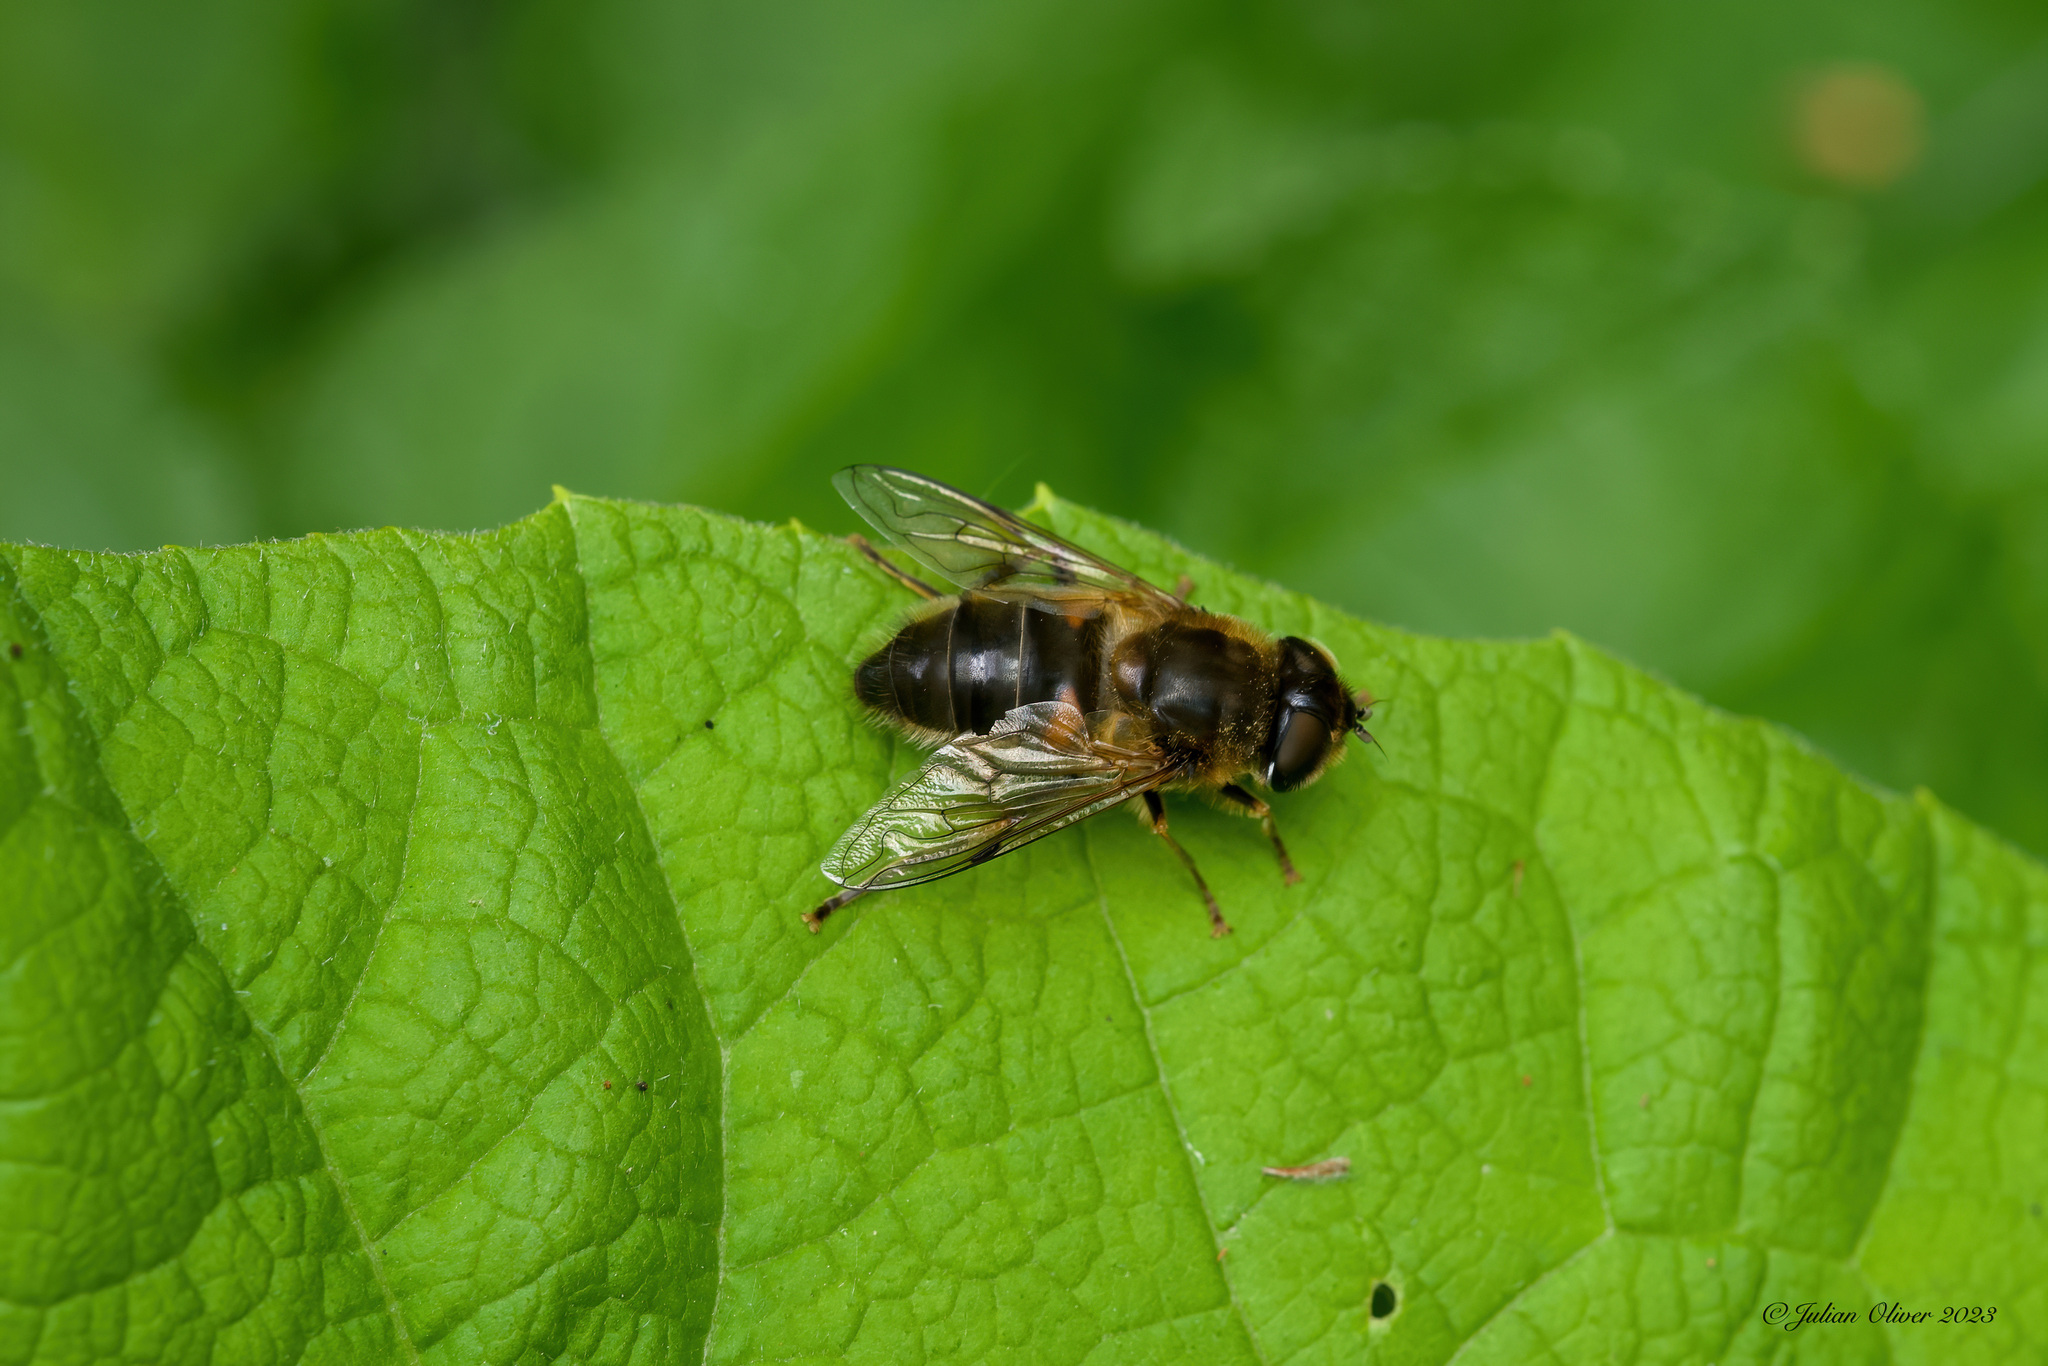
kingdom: Animalia
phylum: Arthropoda
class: Insecta
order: Diptera
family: Syrphidae
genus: Eristalis
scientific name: Eristalis pertinax
